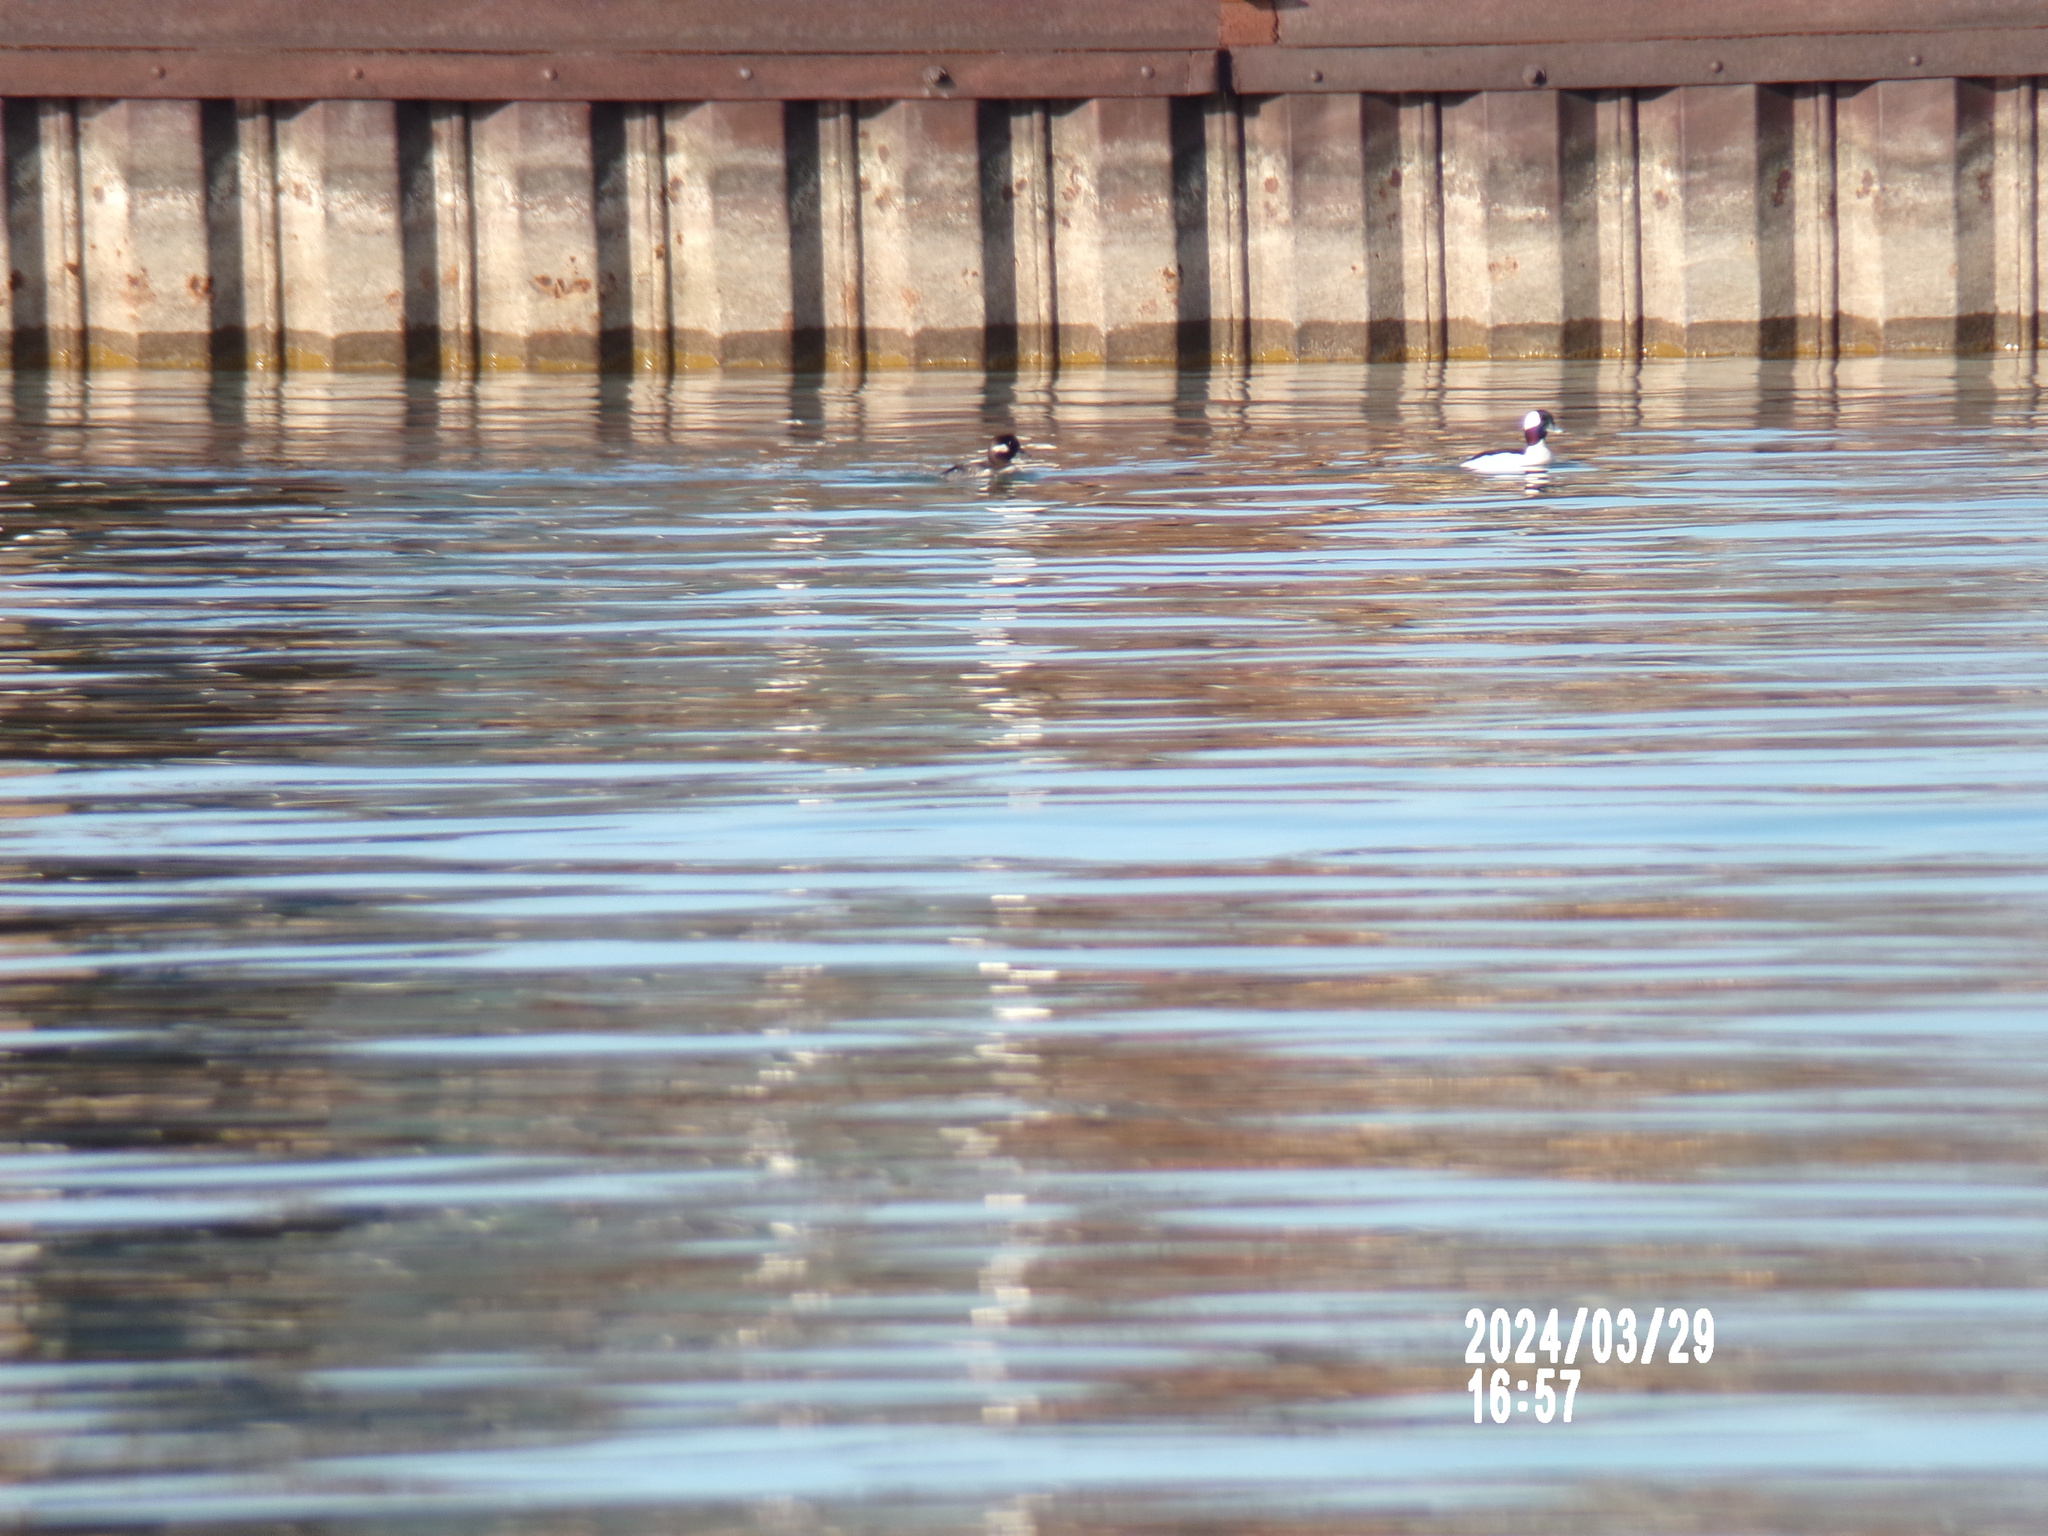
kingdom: Animalia
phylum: Chordata
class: Aves
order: Anseriformes
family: Anatidae
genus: Bucephala
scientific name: Bucephala albeola
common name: Bufflehead
